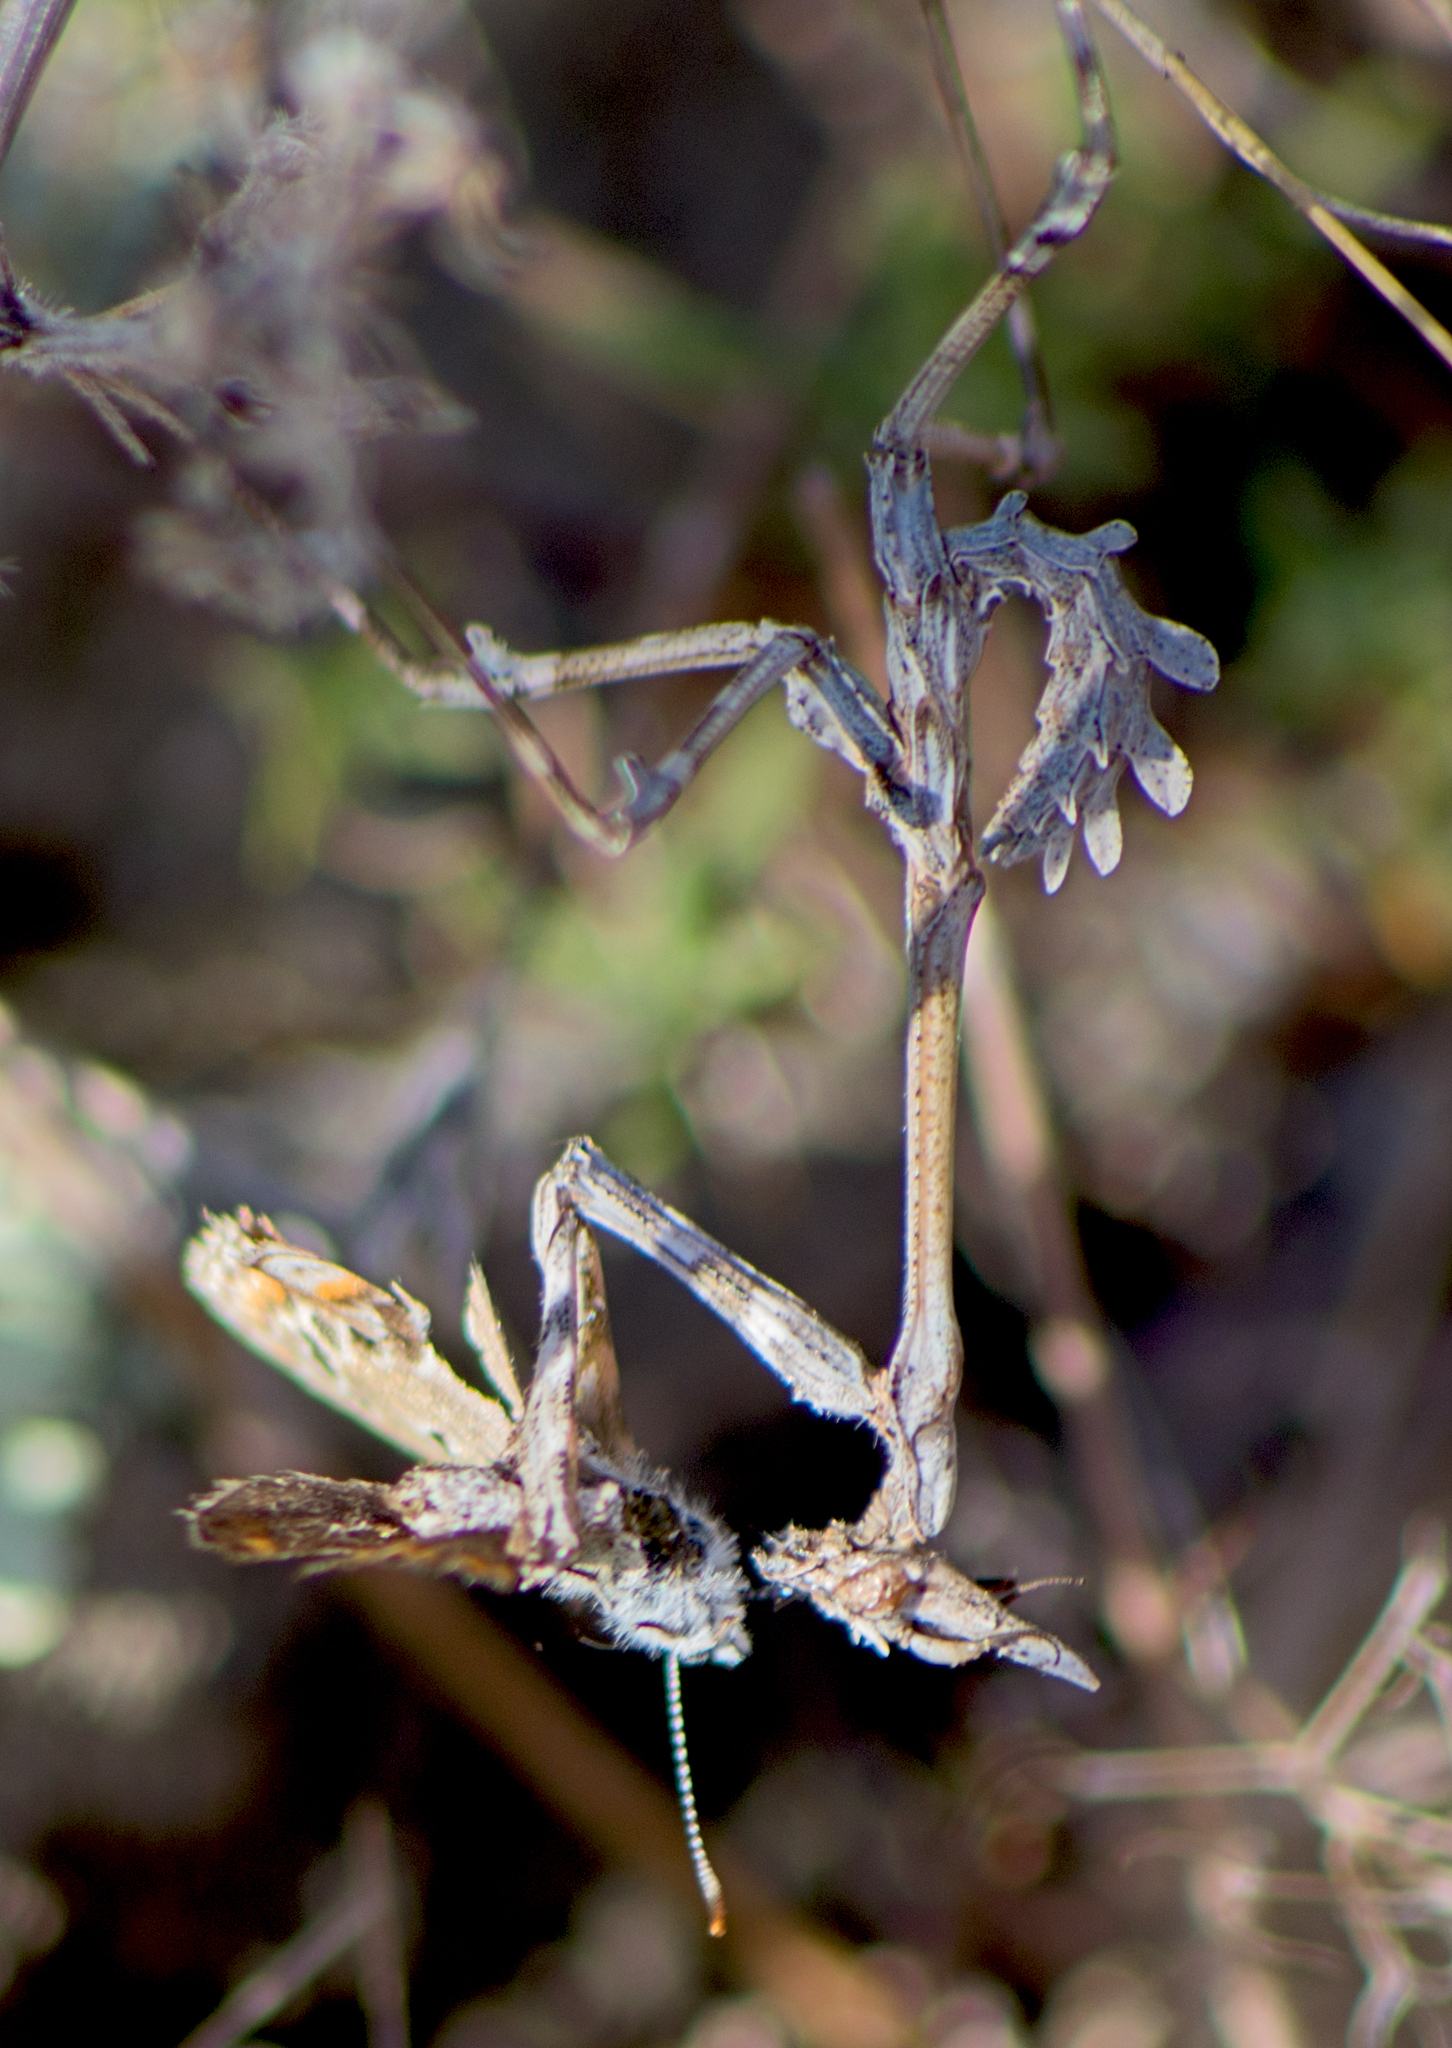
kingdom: Animalia
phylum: Arthropoda
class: Insecta
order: Mantodea
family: Empusidae
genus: Empusa
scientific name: Empusa fasciata
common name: Devil's mare
